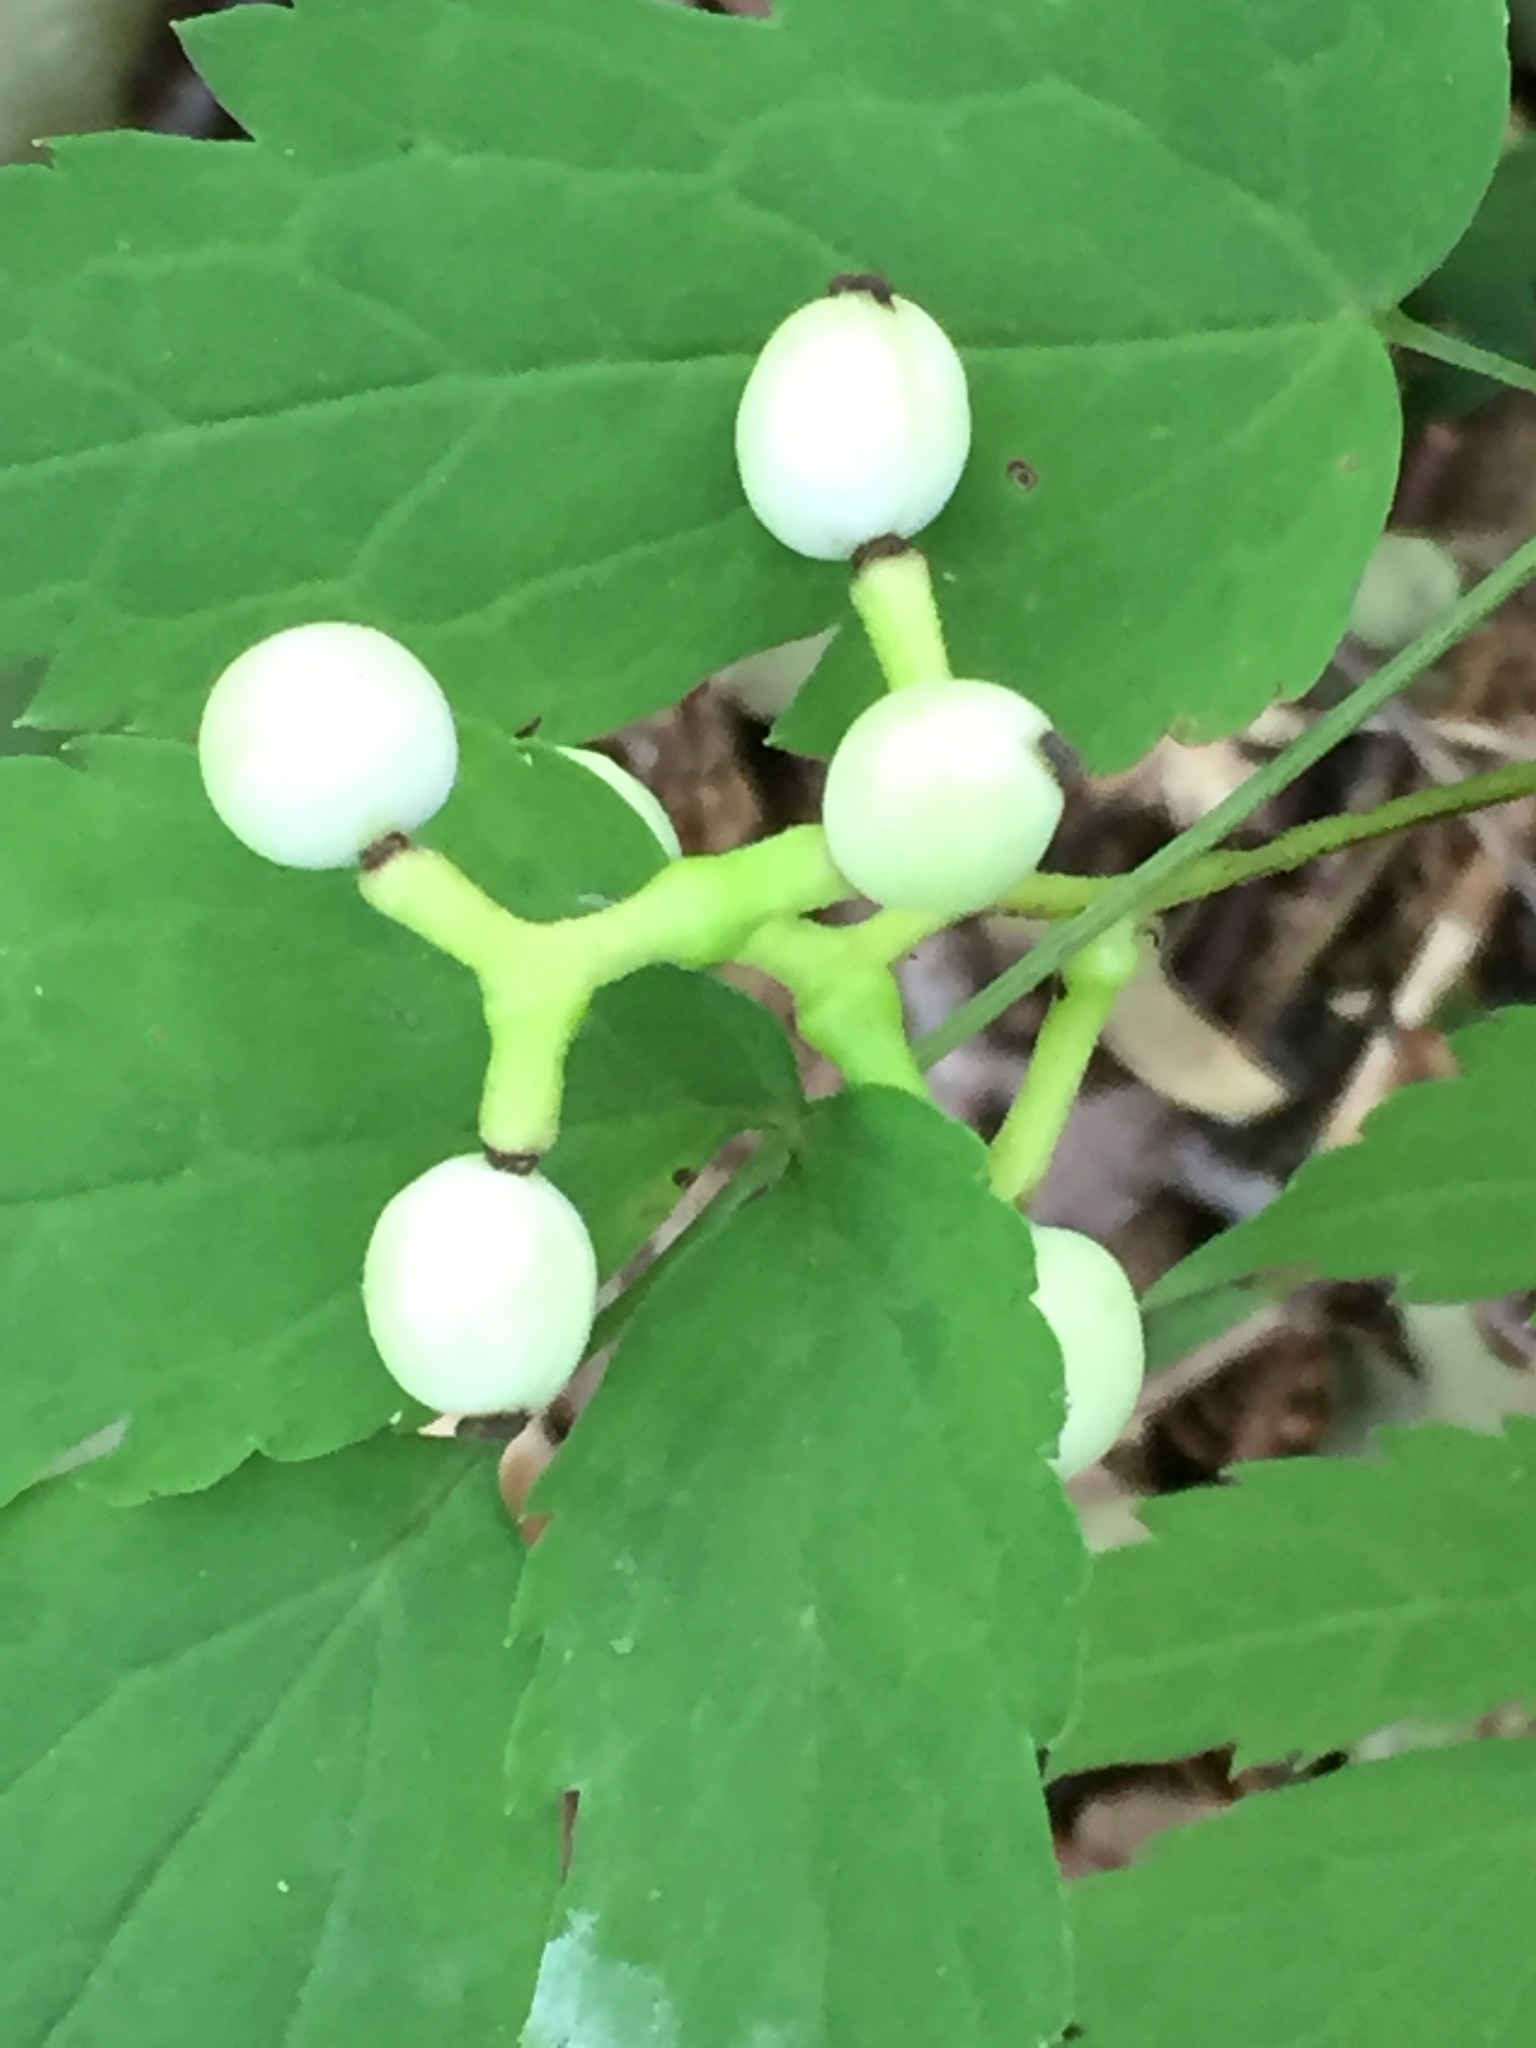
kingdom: Plantae
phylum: Tracheophyta
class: Magnoliopsida
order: Ranunculales
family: Ranunculaceae
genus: Actaea
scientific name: Actaea pachypoda
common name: Doll's-eyes
